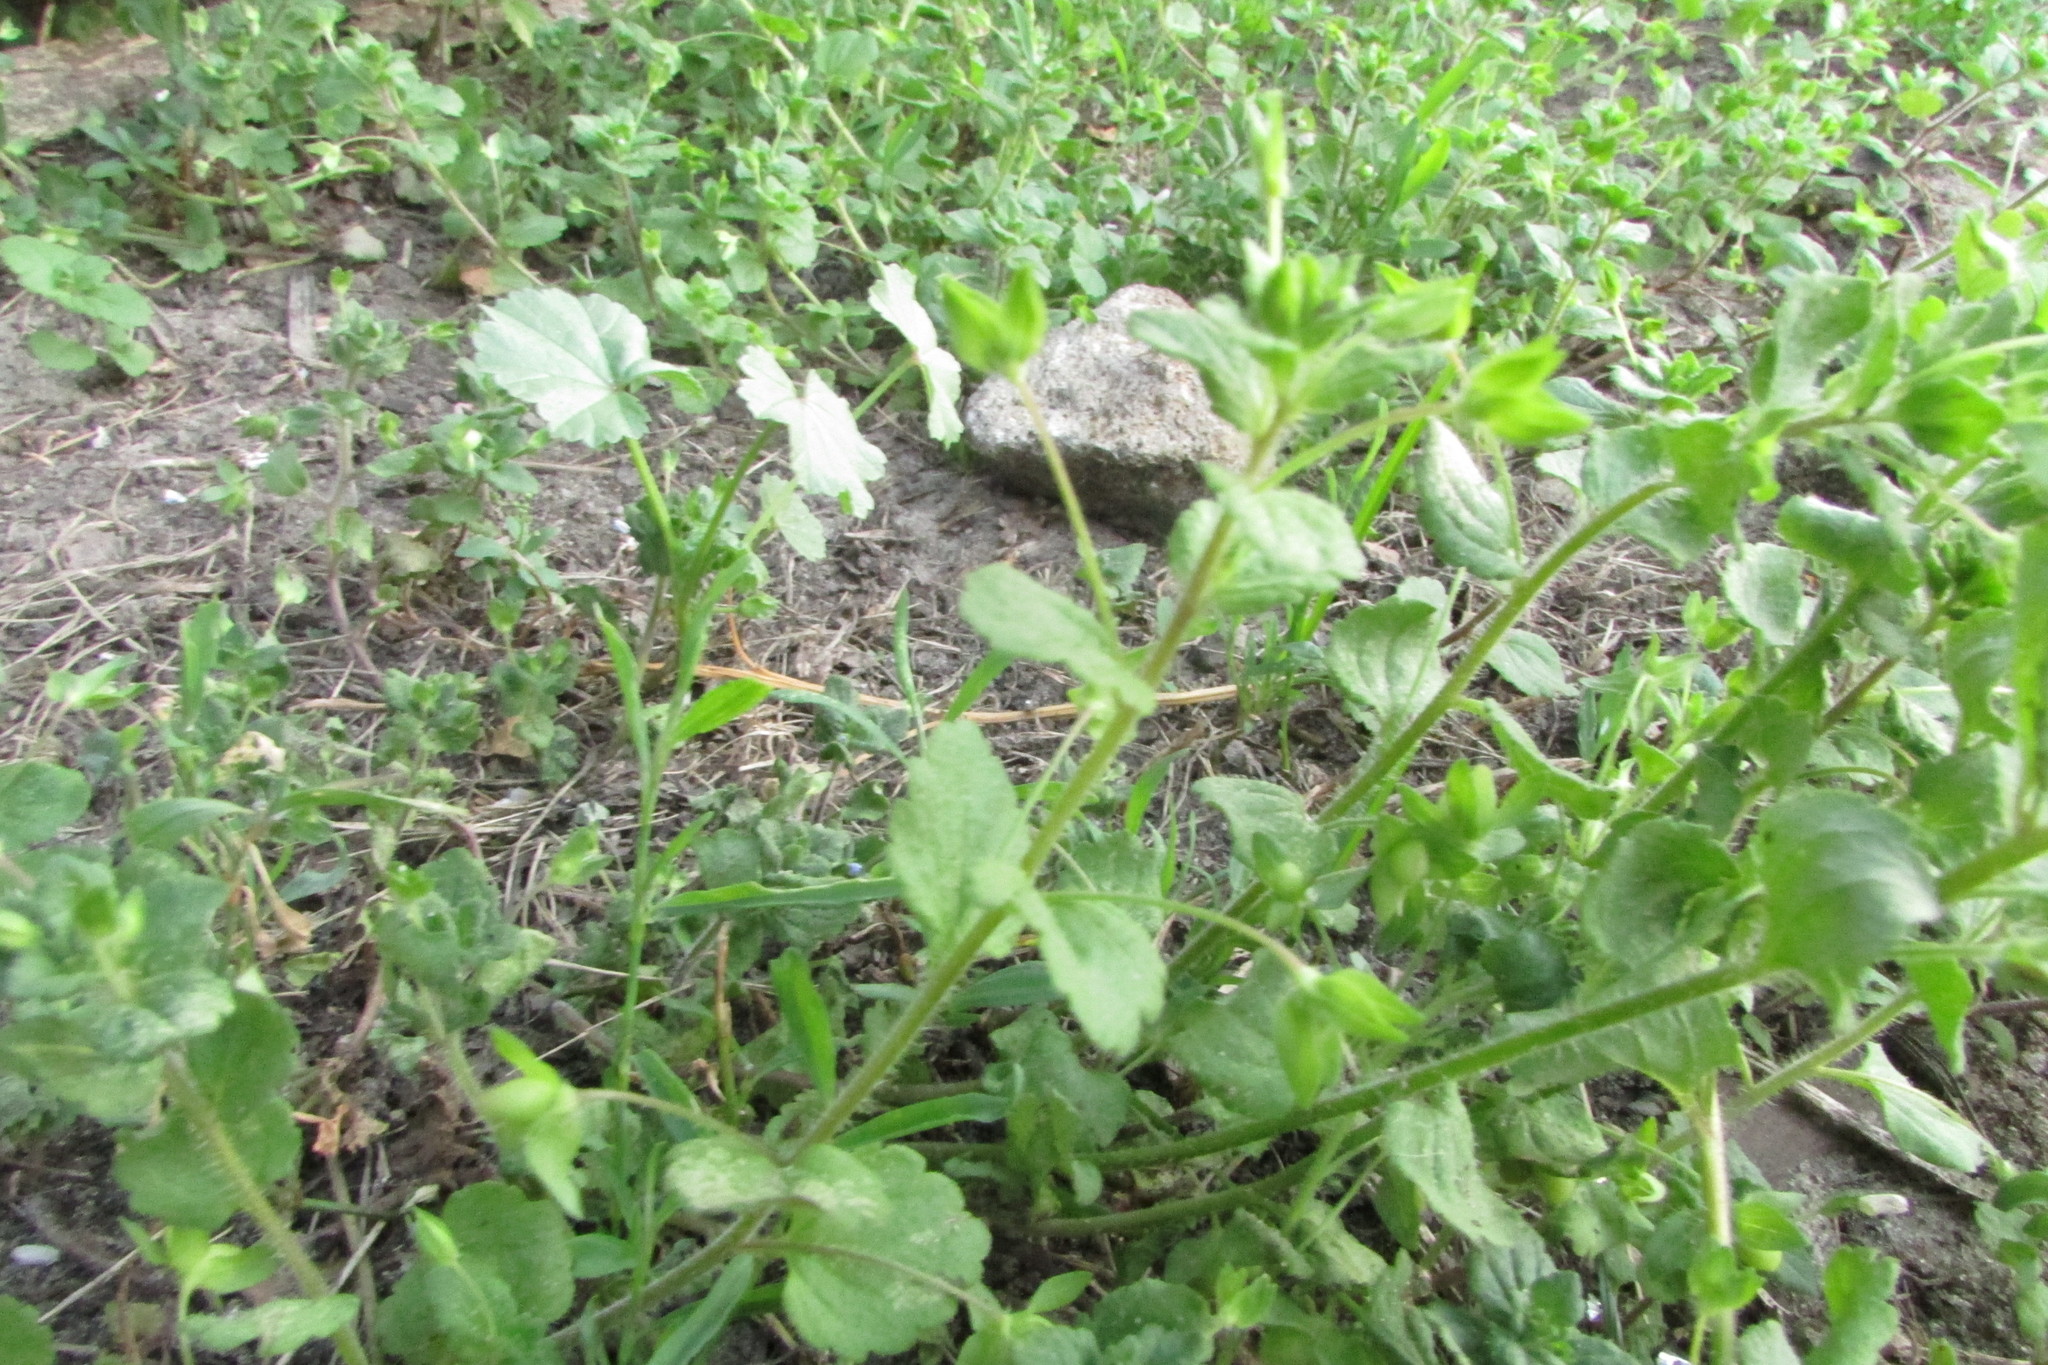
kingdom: Plantae
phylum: Tracheophyta
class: Magnoliopsida
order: Lamiales
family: Plantaginaceae
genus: Veronica
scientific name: Veronica persica
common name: Common field-speedwell
